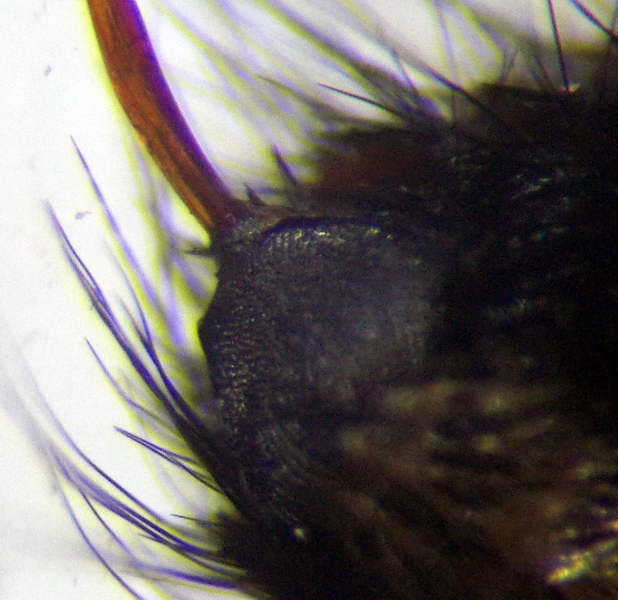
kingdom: Animalia
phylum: Arthropoda
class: Insecta
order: Hymenoptera
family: Mutillidae
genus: Dasylabris
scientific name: Dasylabris regalis
